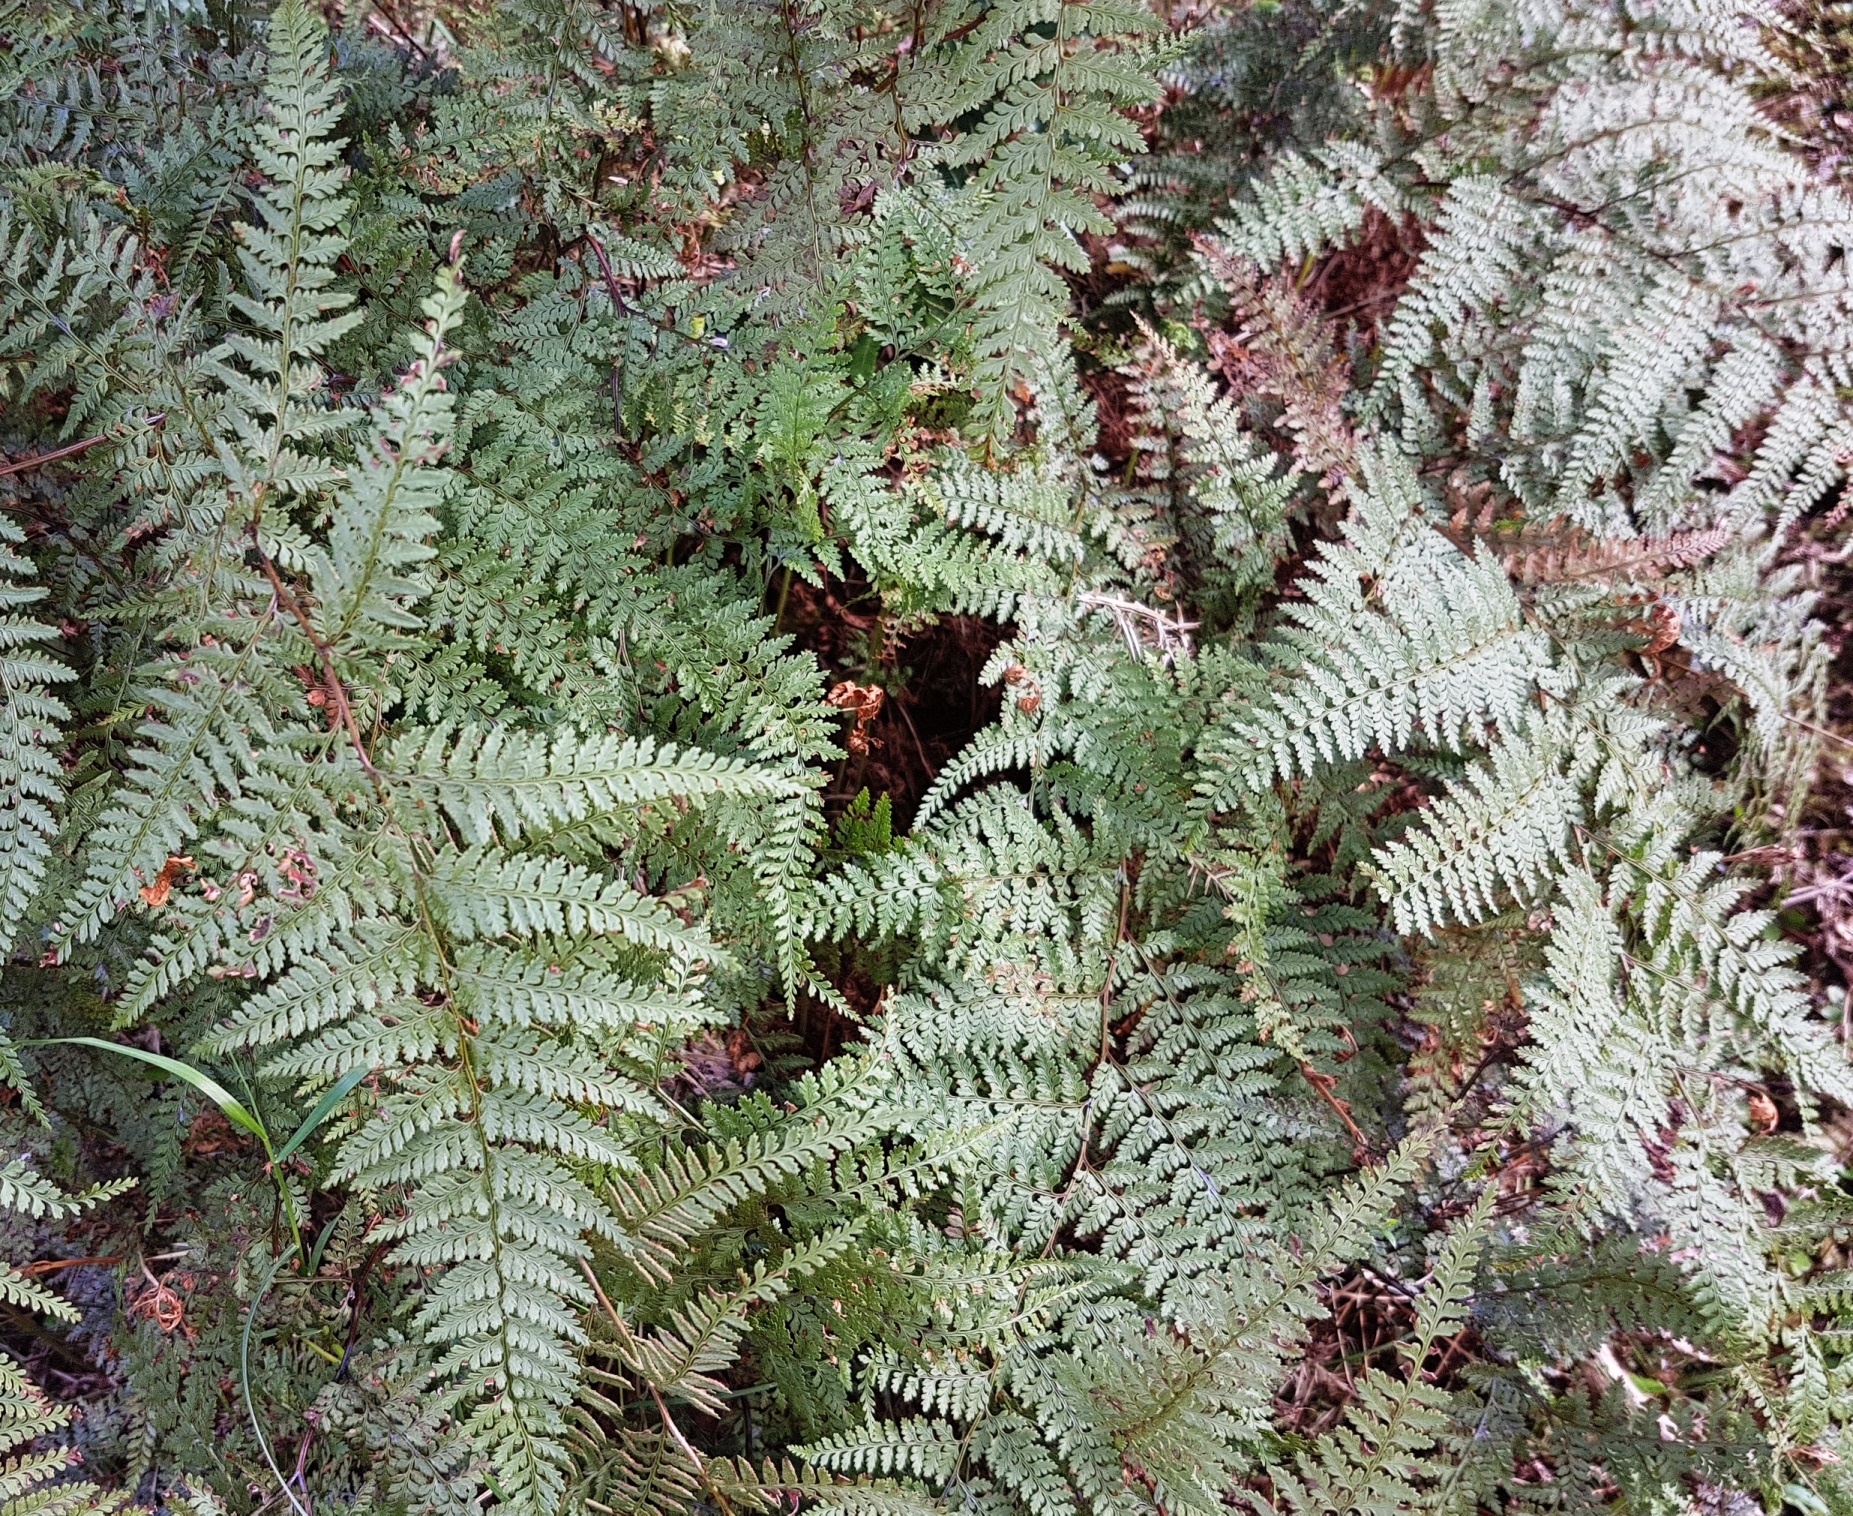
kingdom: Plantae
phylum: Tracheophyta
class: Polypodiopsida
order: Polypodiales
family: Dennstaedtiaceae
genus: Paesia
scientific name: Paesia scaberula
